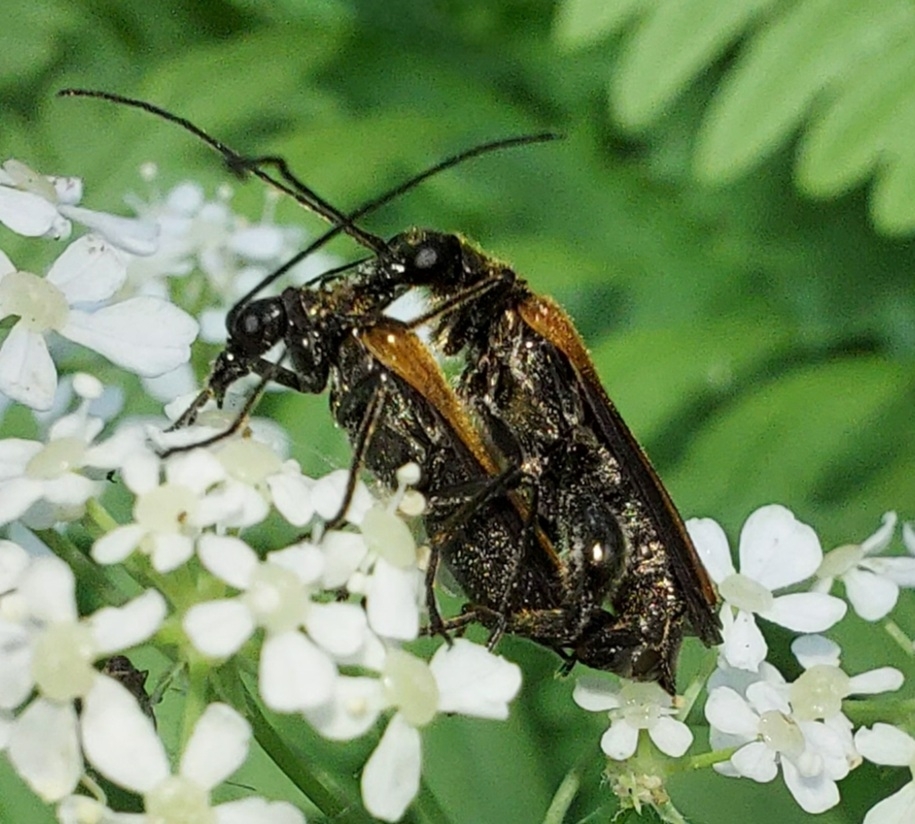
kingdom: Animalia
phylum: Arthropoda
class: Insecta
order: Coleoptera
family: Oedemeridae
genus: Oedemera
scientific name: Oedemera femorata
